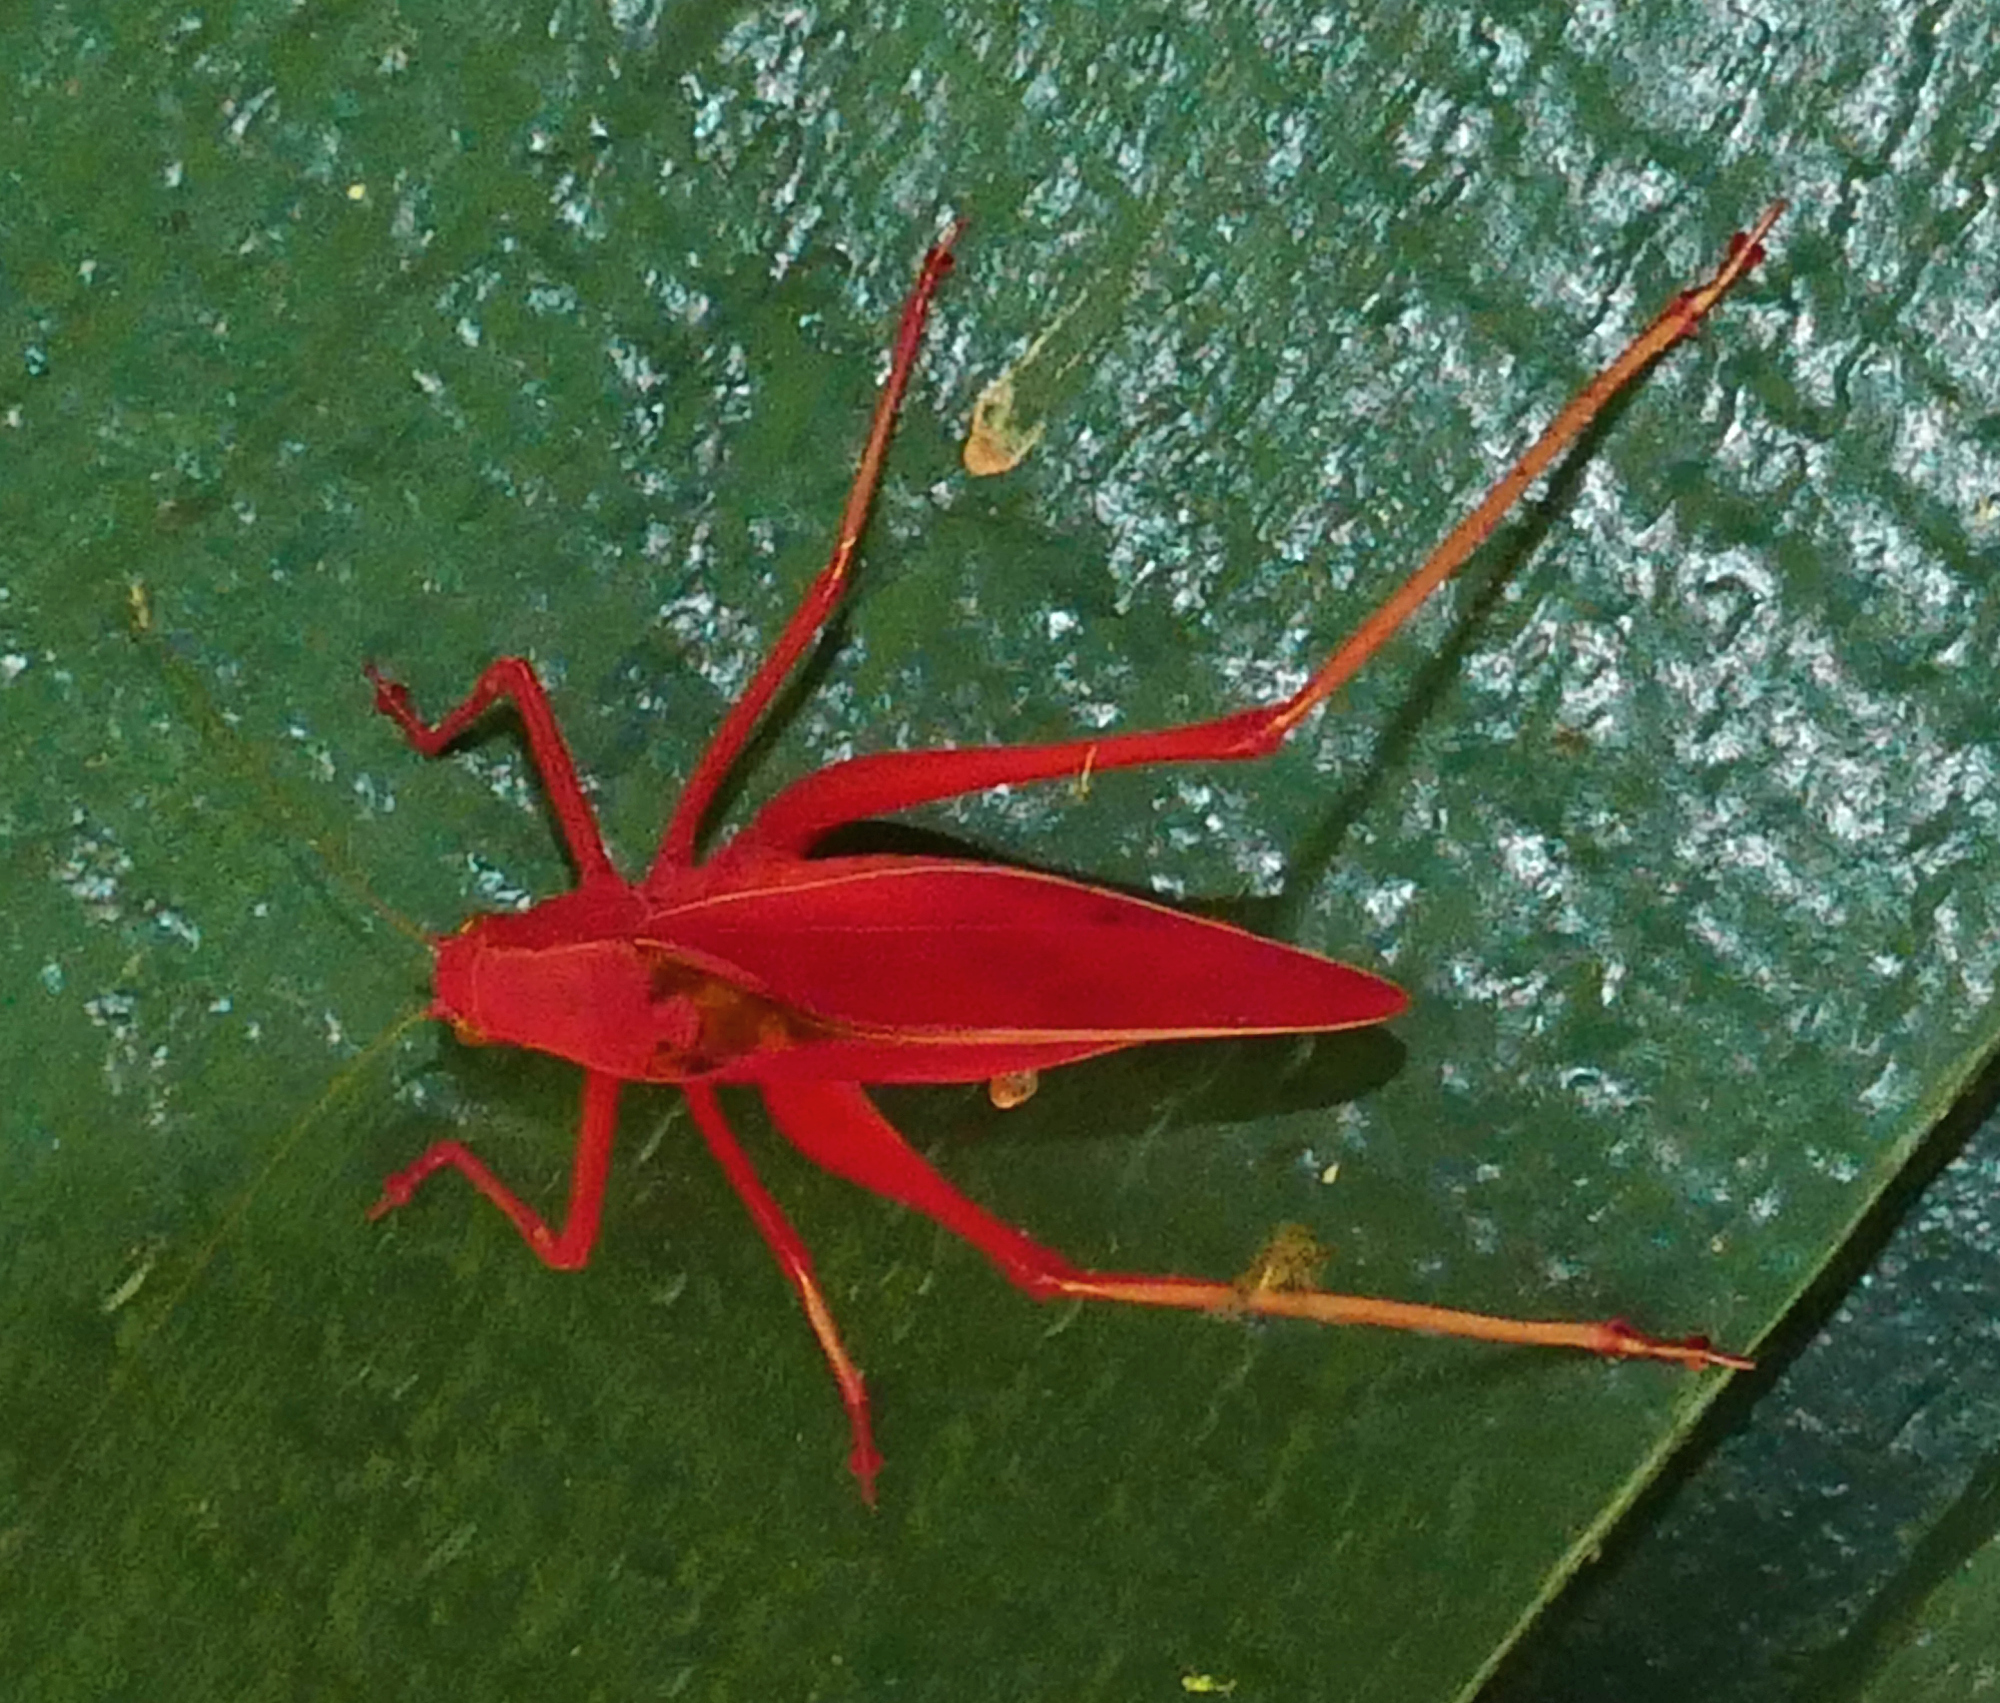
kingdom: Animalia
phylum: Arthropoda
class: Insecta
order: Orthoptera
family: Tettigoniidae
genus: Amblycorypha
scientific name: Amblycorypha oblongifolia
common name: Oblong-winged katydid
